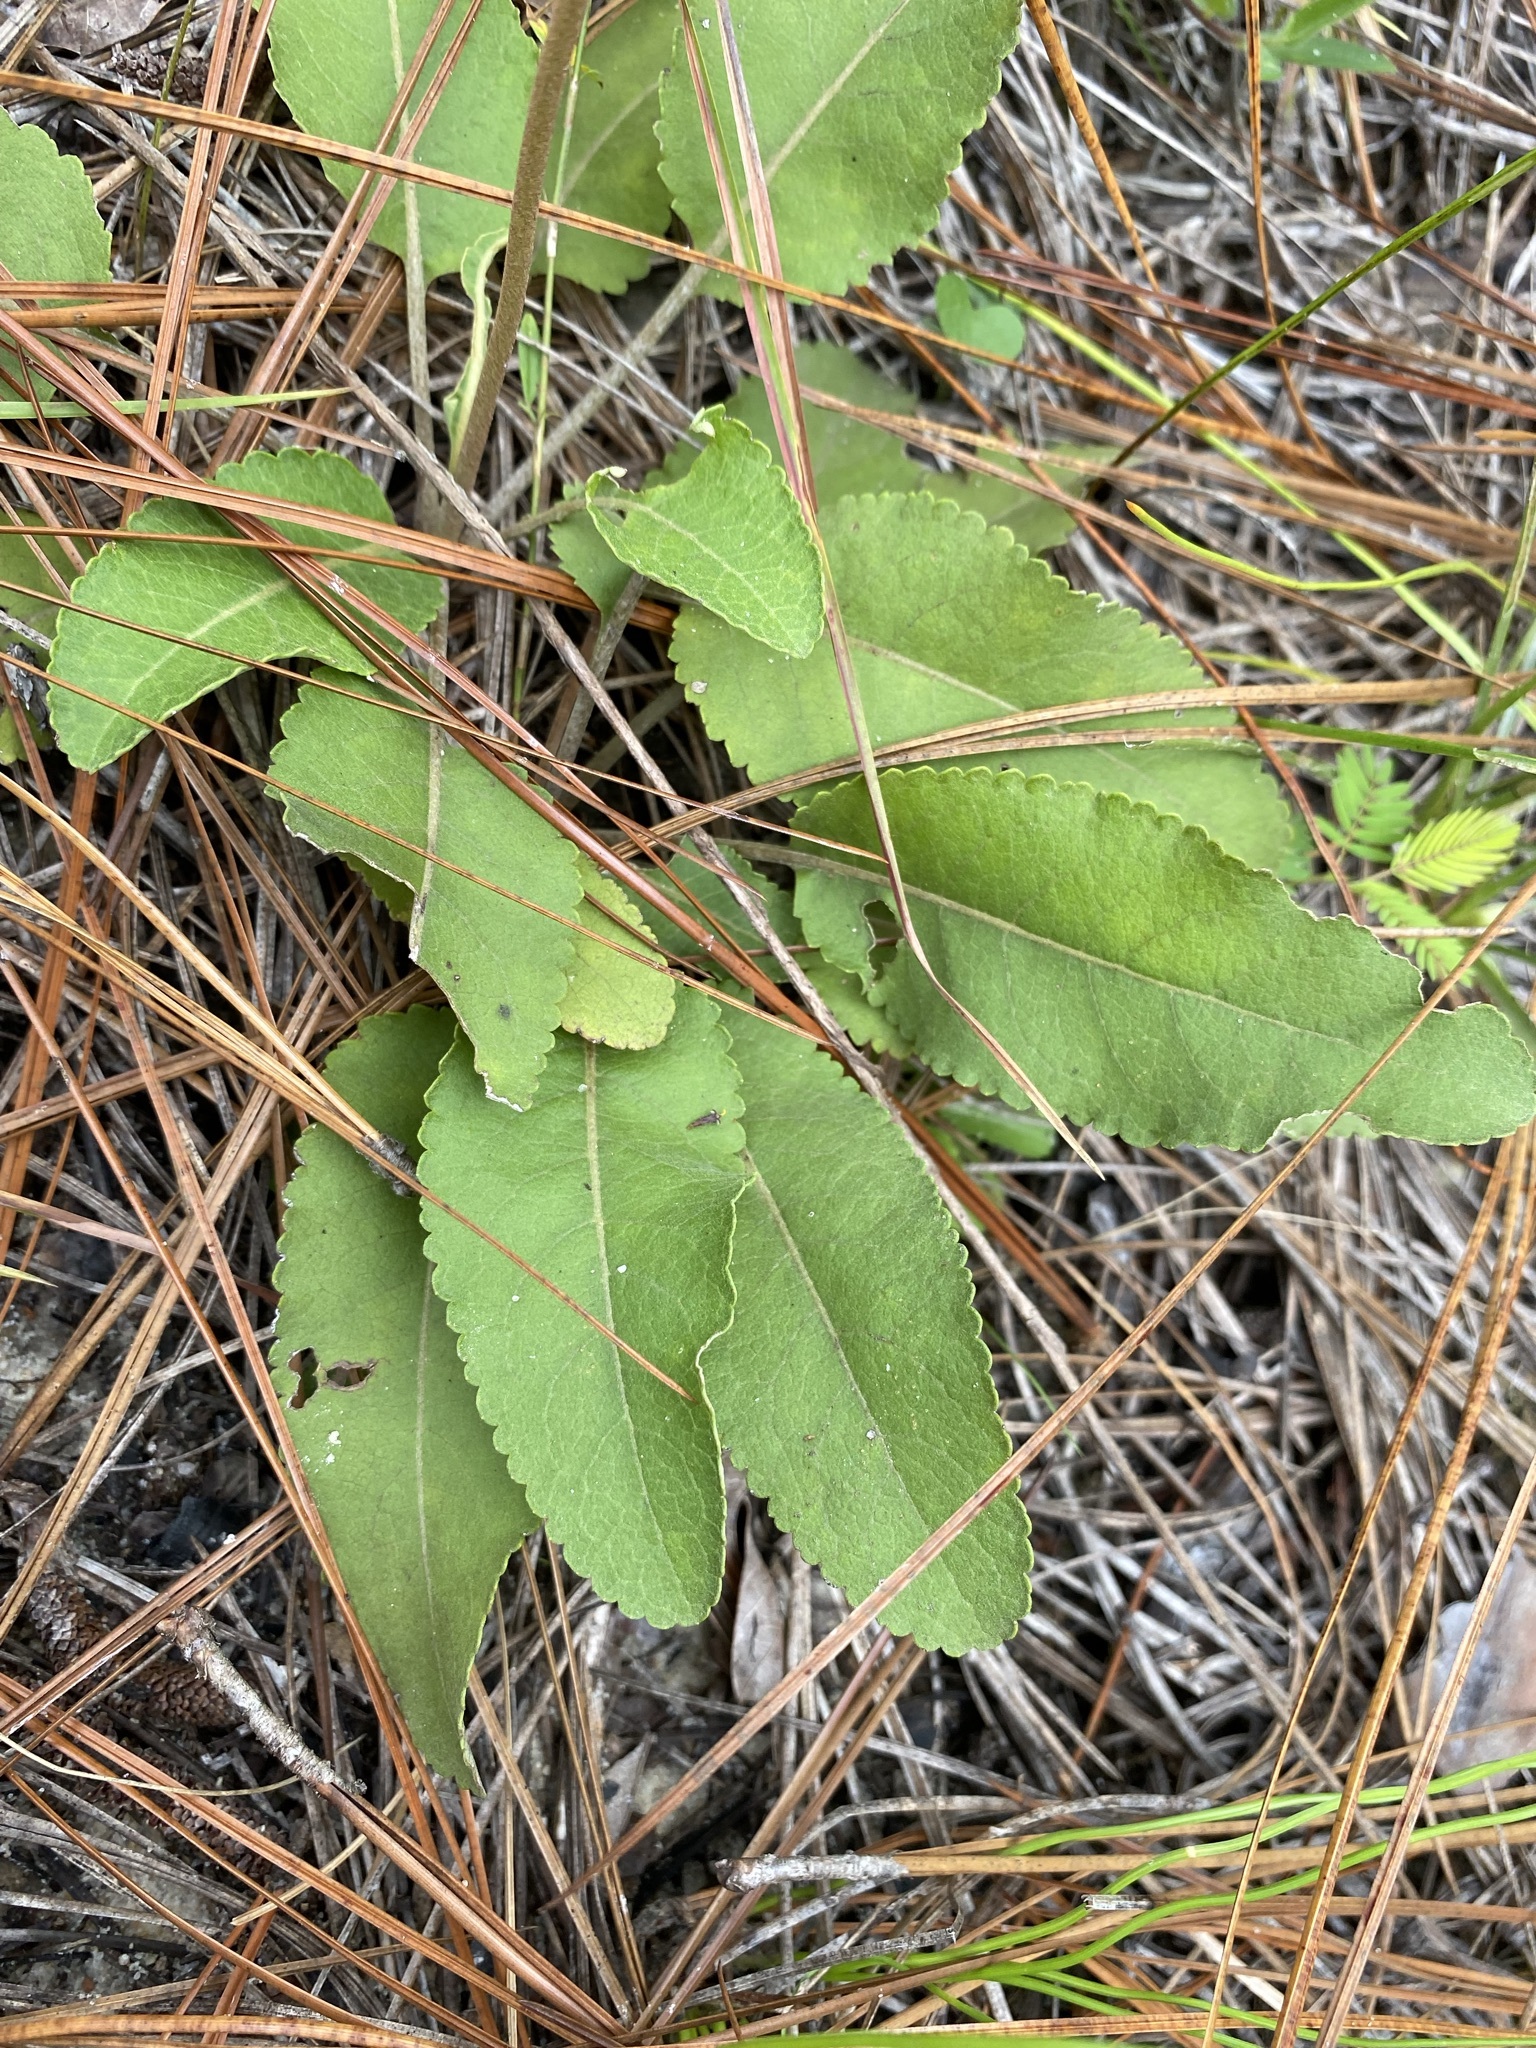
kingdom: Plantae
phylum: Tracheophyta
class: Magnoliopsida
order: Asterales
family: Asteraceae
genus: Berlandiera
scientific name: Berlandiera pumila
